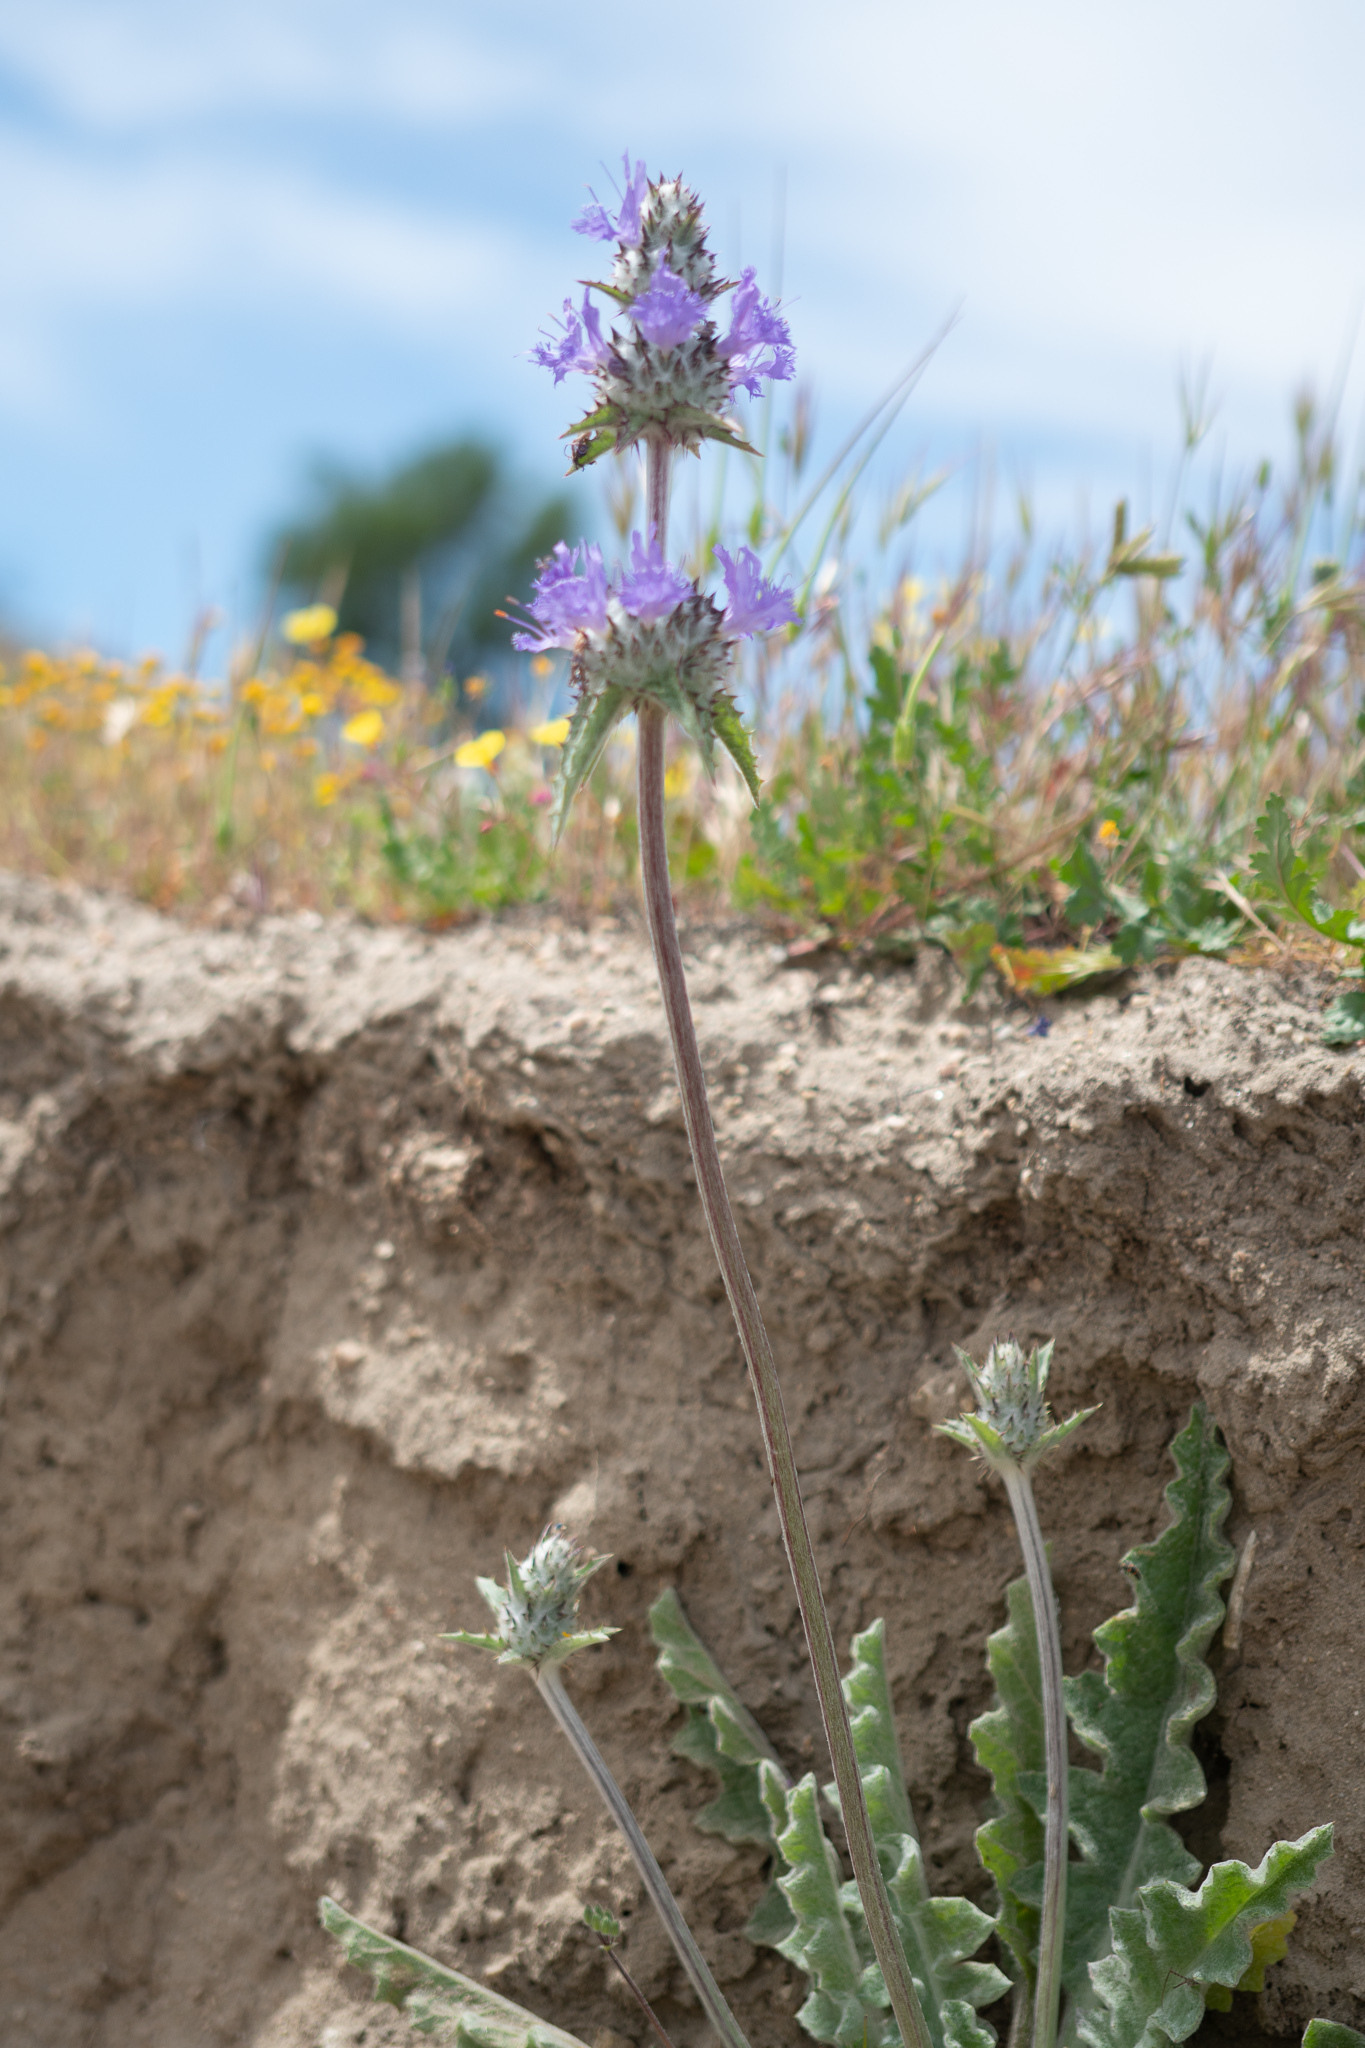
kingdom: Plantae
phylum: Tracheophyta
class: Magnoliopsida
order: Lamiales
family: Lamiaceae
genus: Salvia
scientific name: Salvia carduacea
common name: Thistle sage
